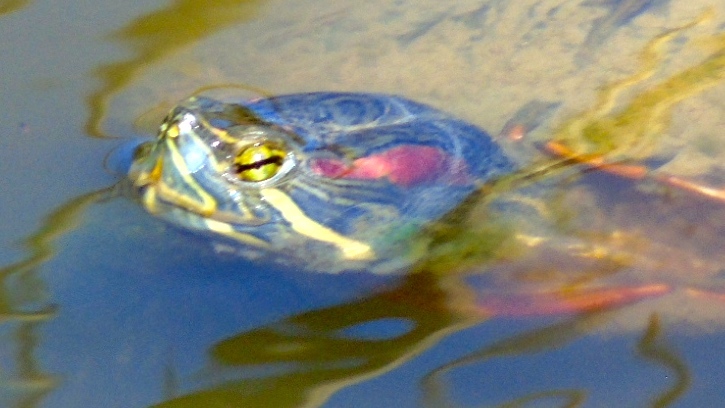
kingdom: Animalia
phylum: Chordata
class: Testudines
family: Emydidae
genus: Trachemys
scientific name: Trachemys scripta
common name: Slider
